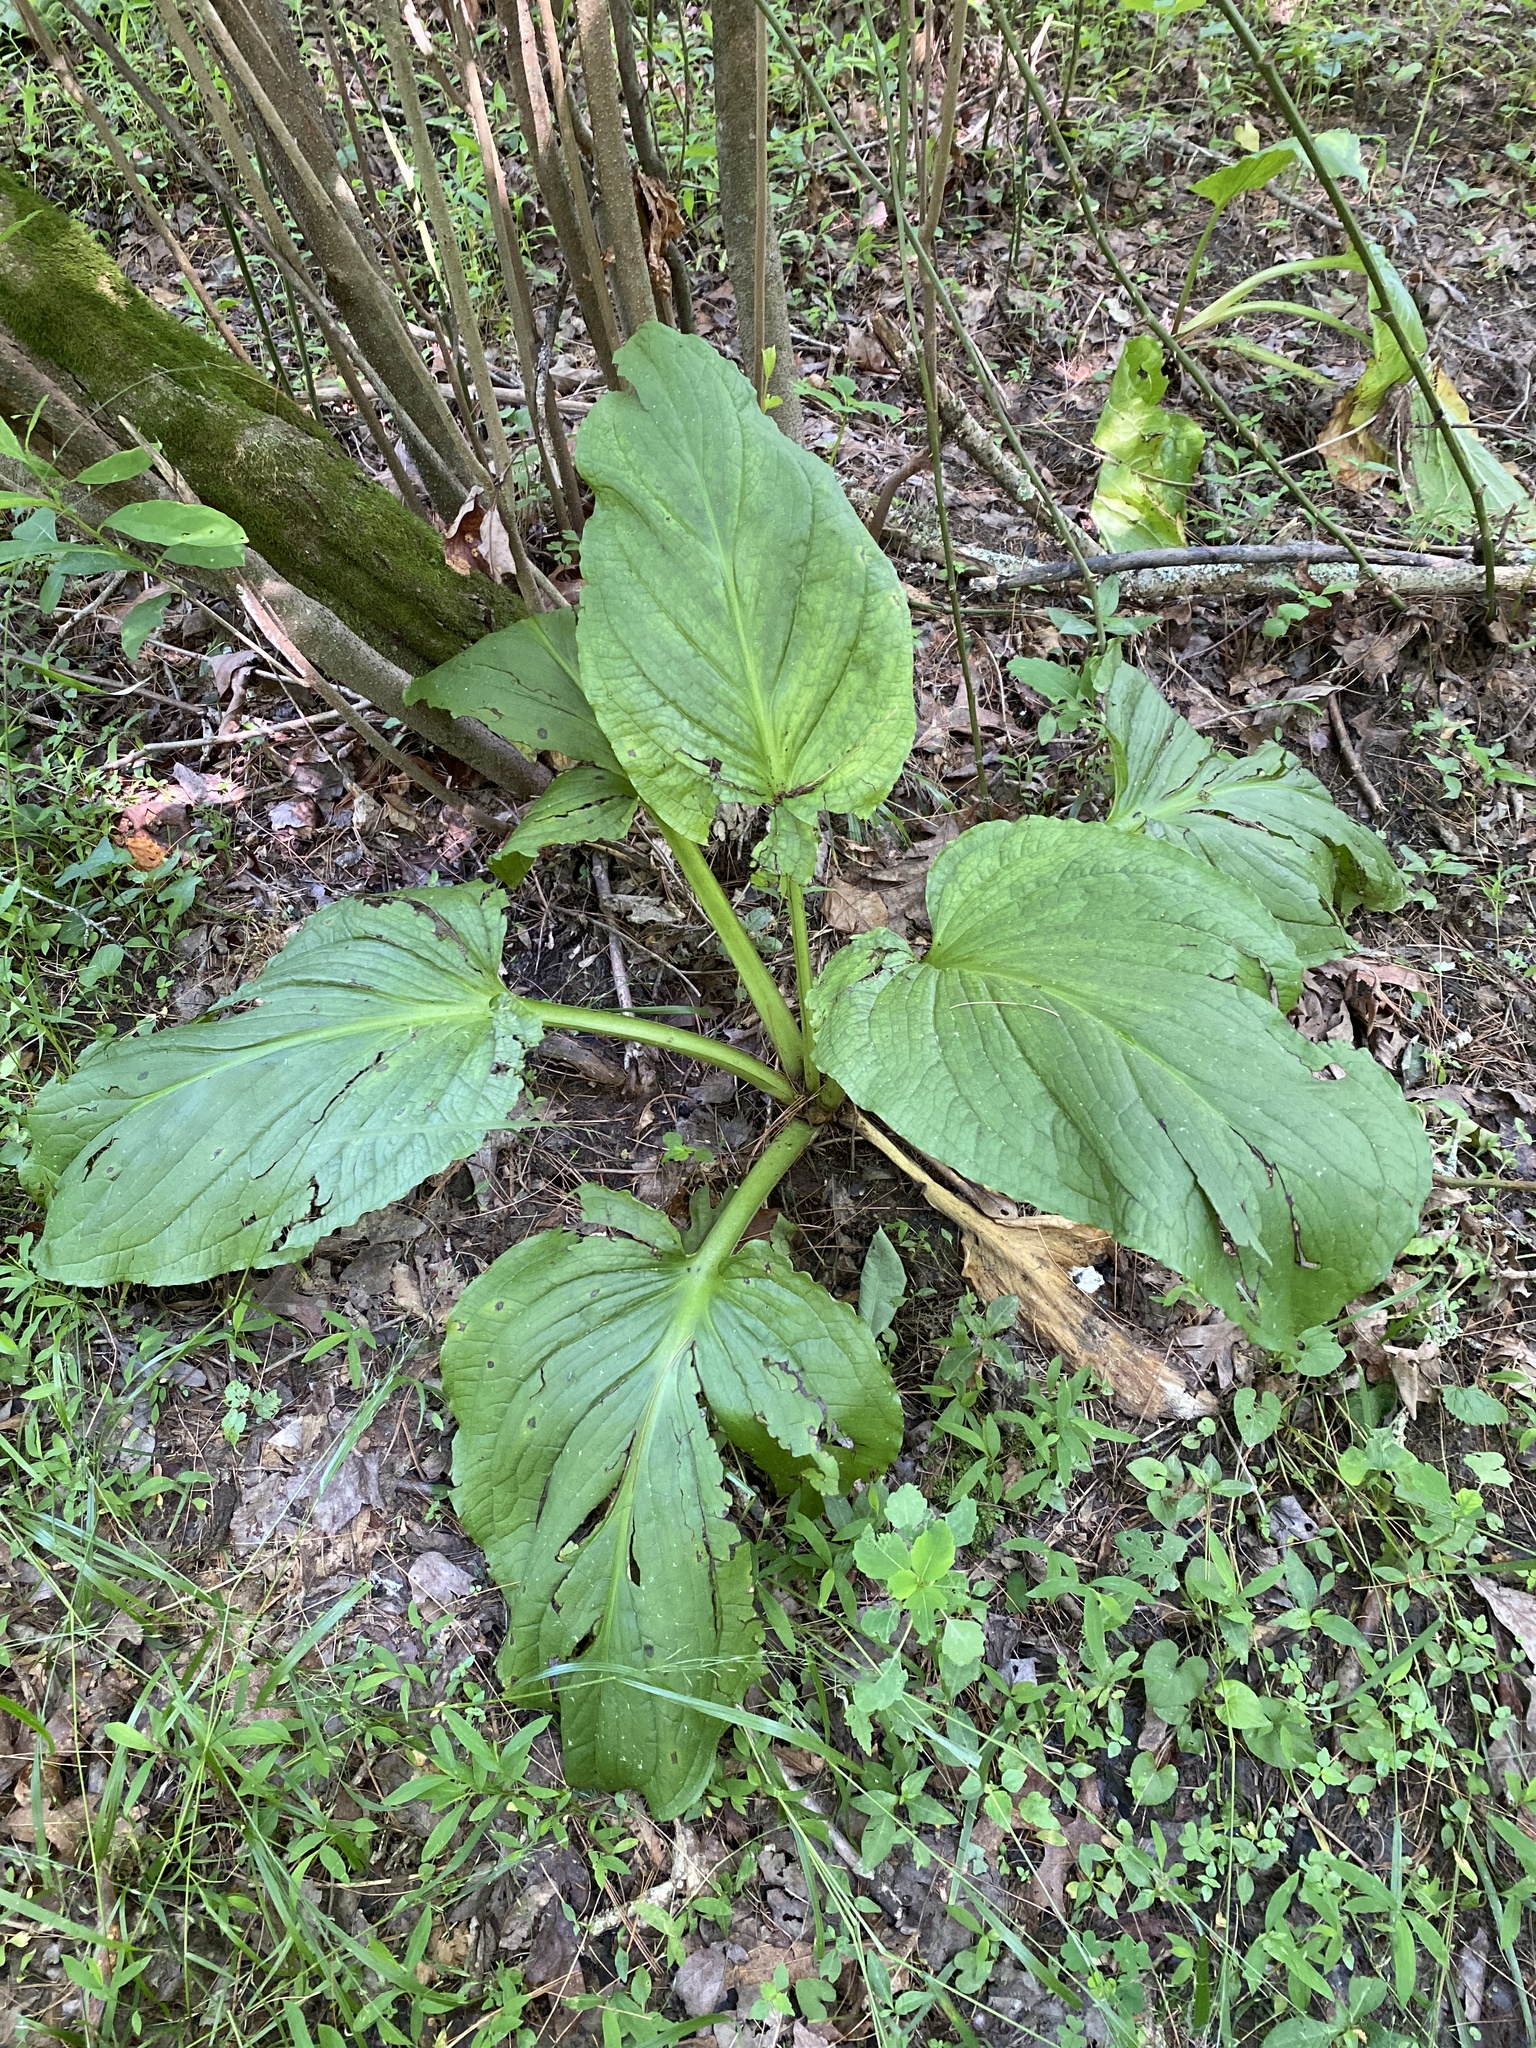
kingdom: Plantae
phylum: Tracheophyta
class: Liliopsida
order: Alismatales
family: Araceae
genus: Symplocarpus
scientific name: Symplocarpus foetidus
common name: Eastern skunk cabbage
